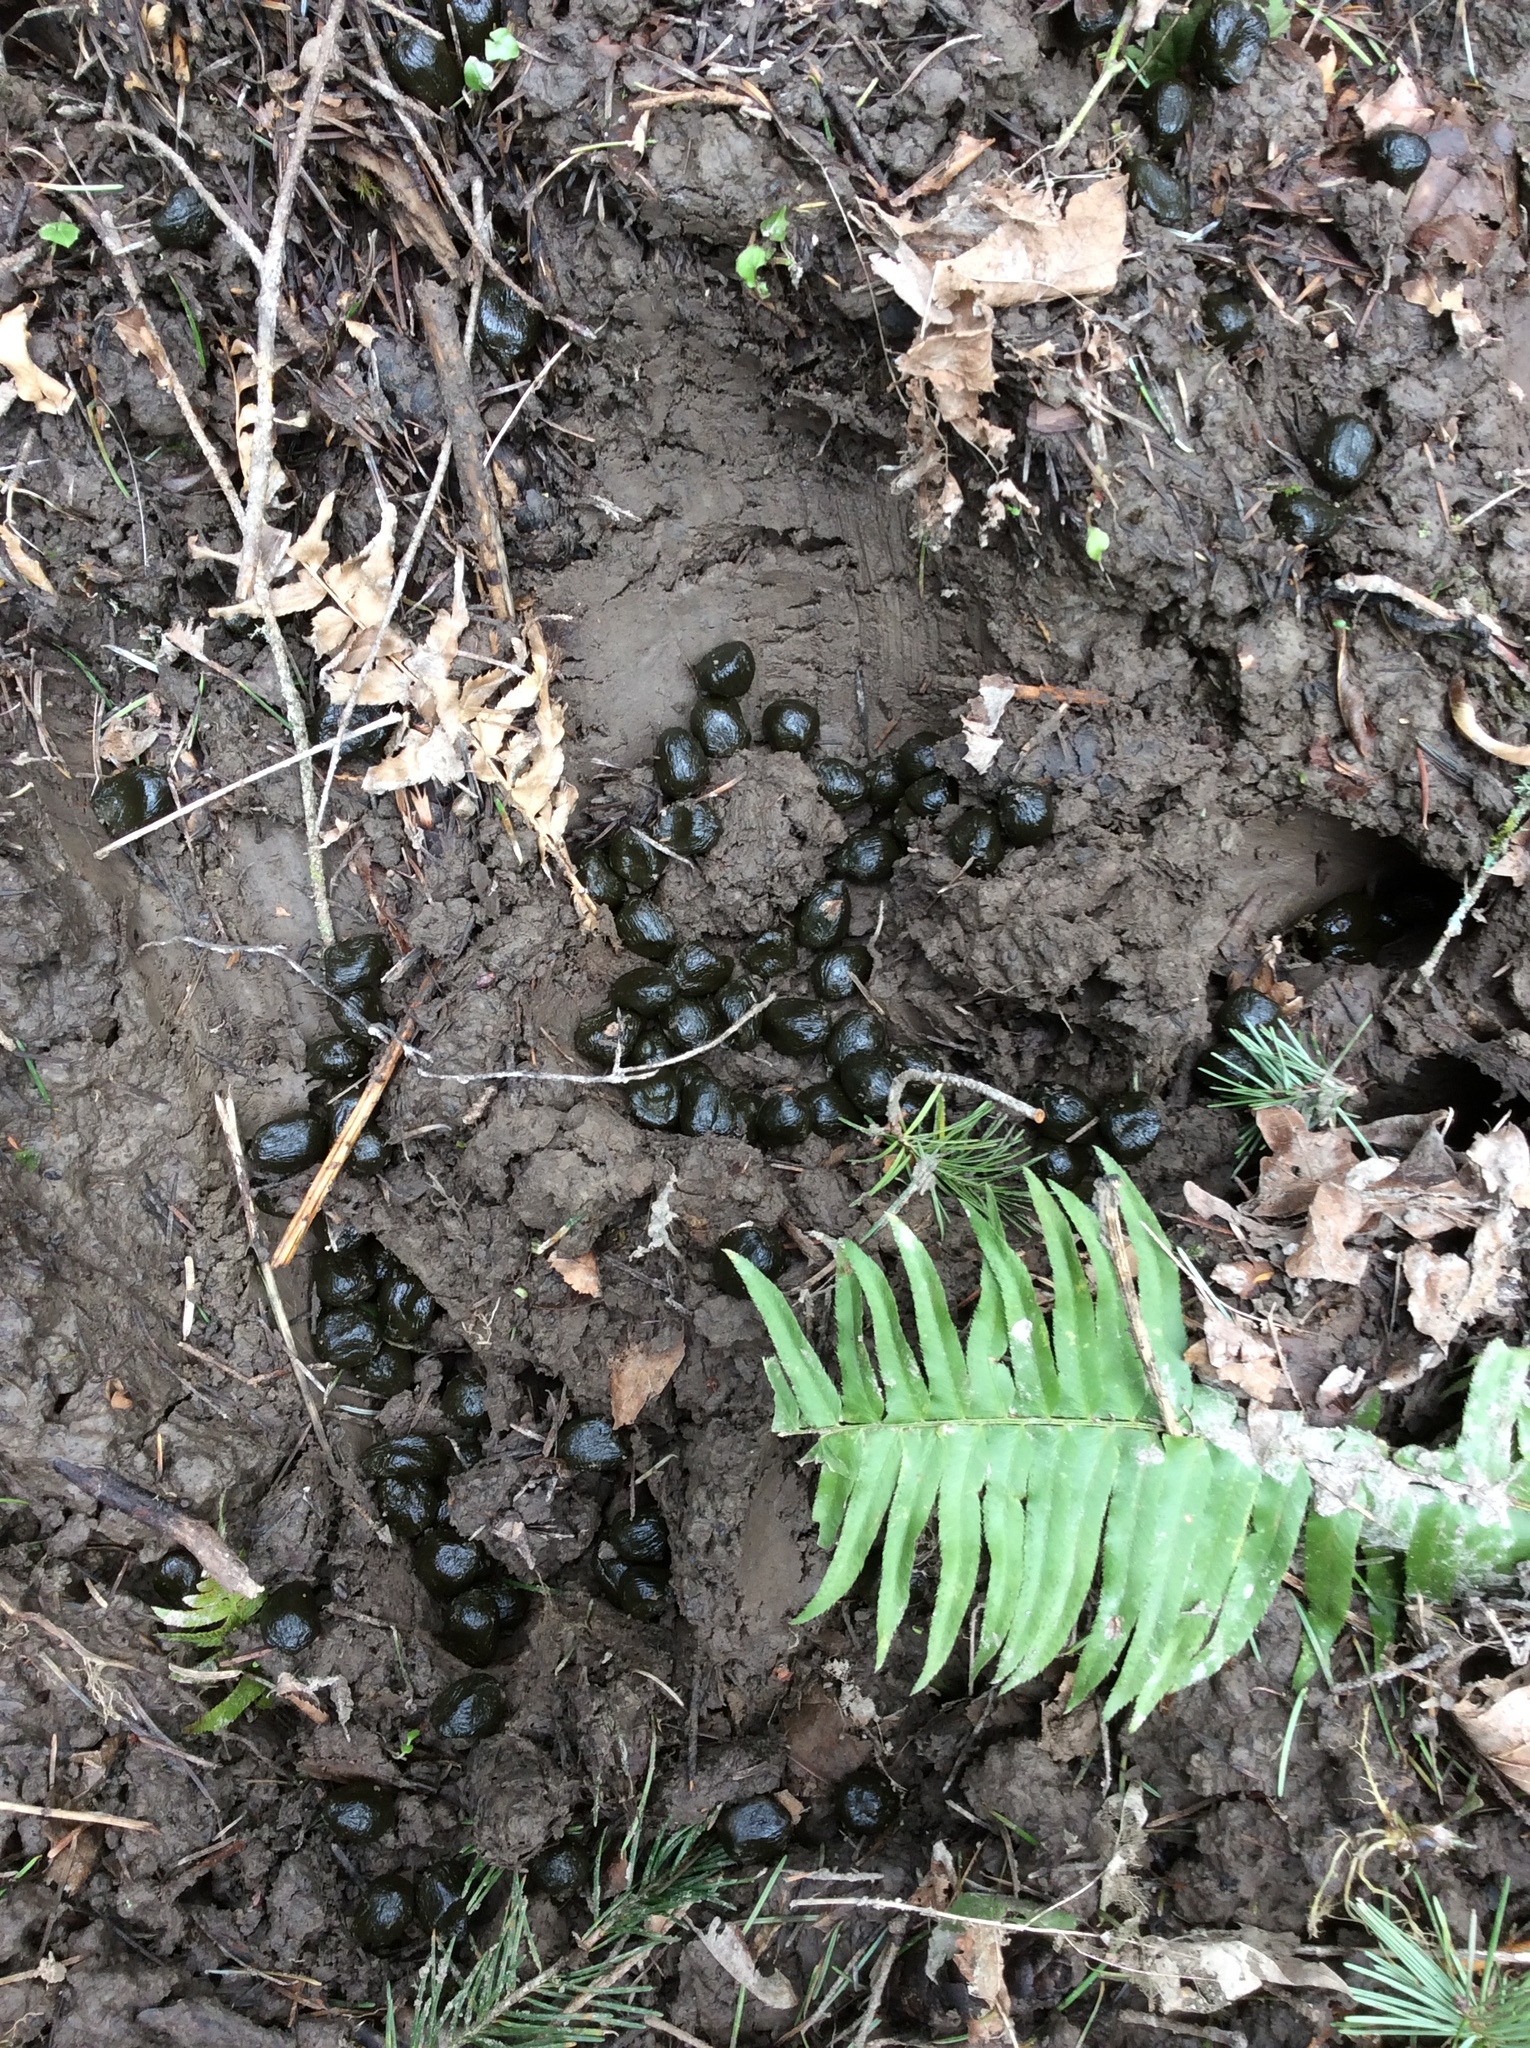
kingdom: Animalia
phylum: Chordata
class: Mammalia
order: Artiodactyla
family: Cervidae
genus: Cervus
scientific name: Cervus elaphus
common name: Red deer
